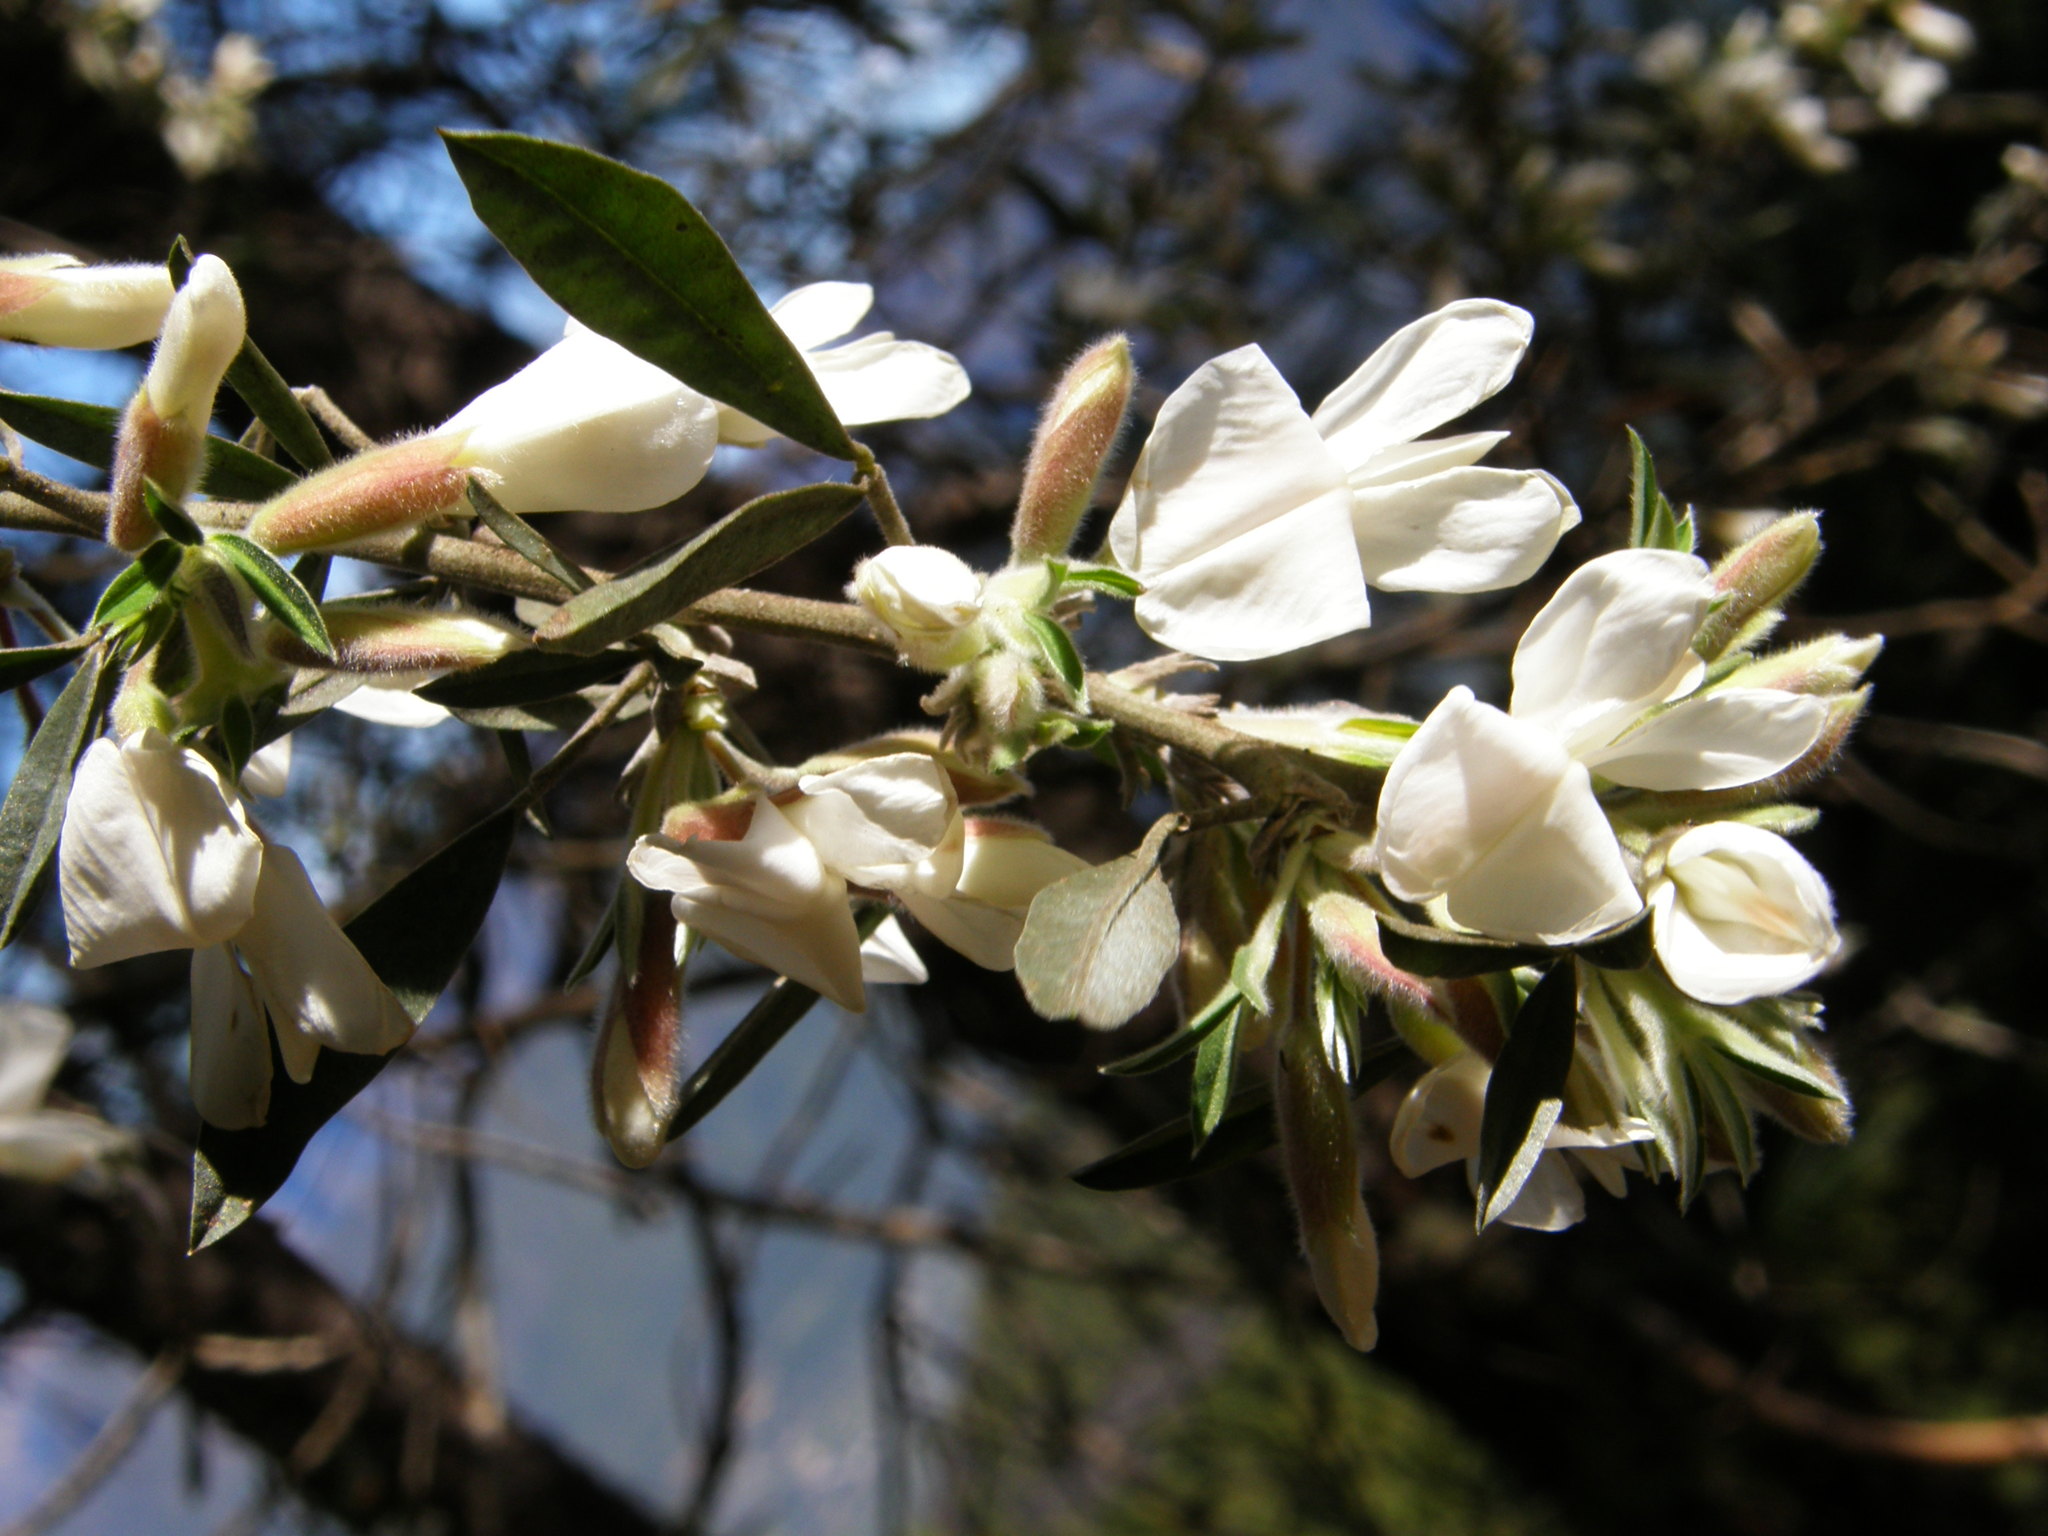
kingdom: Plantae
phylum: Tracheophyta
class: Magnoliopsida
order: Fabales
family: Fabaceae
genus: Chamaecytisus
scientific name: Chamaecytisus prolifer
